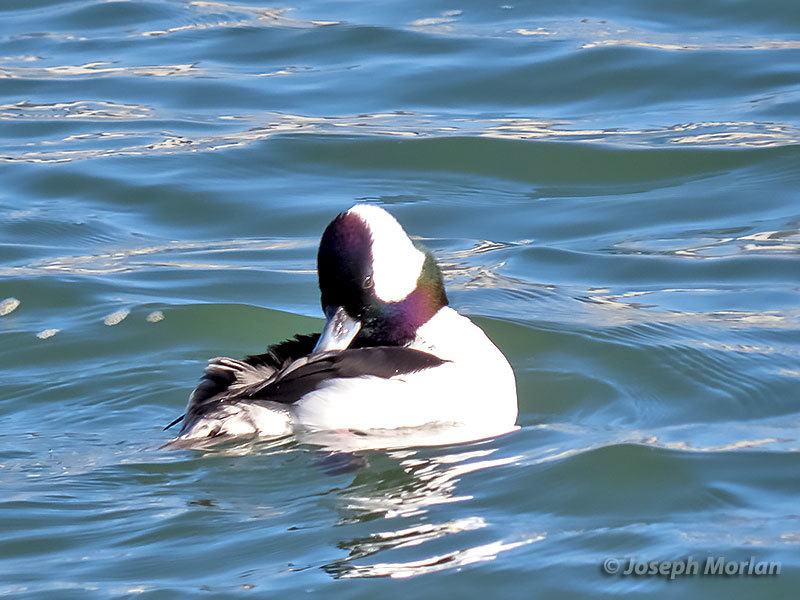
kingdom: Animalia
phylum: Chordata
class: Aves
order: Anseriformes
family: Anatidae
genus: Bucephala
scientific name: Bucephala albeola
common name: Bufflehead
